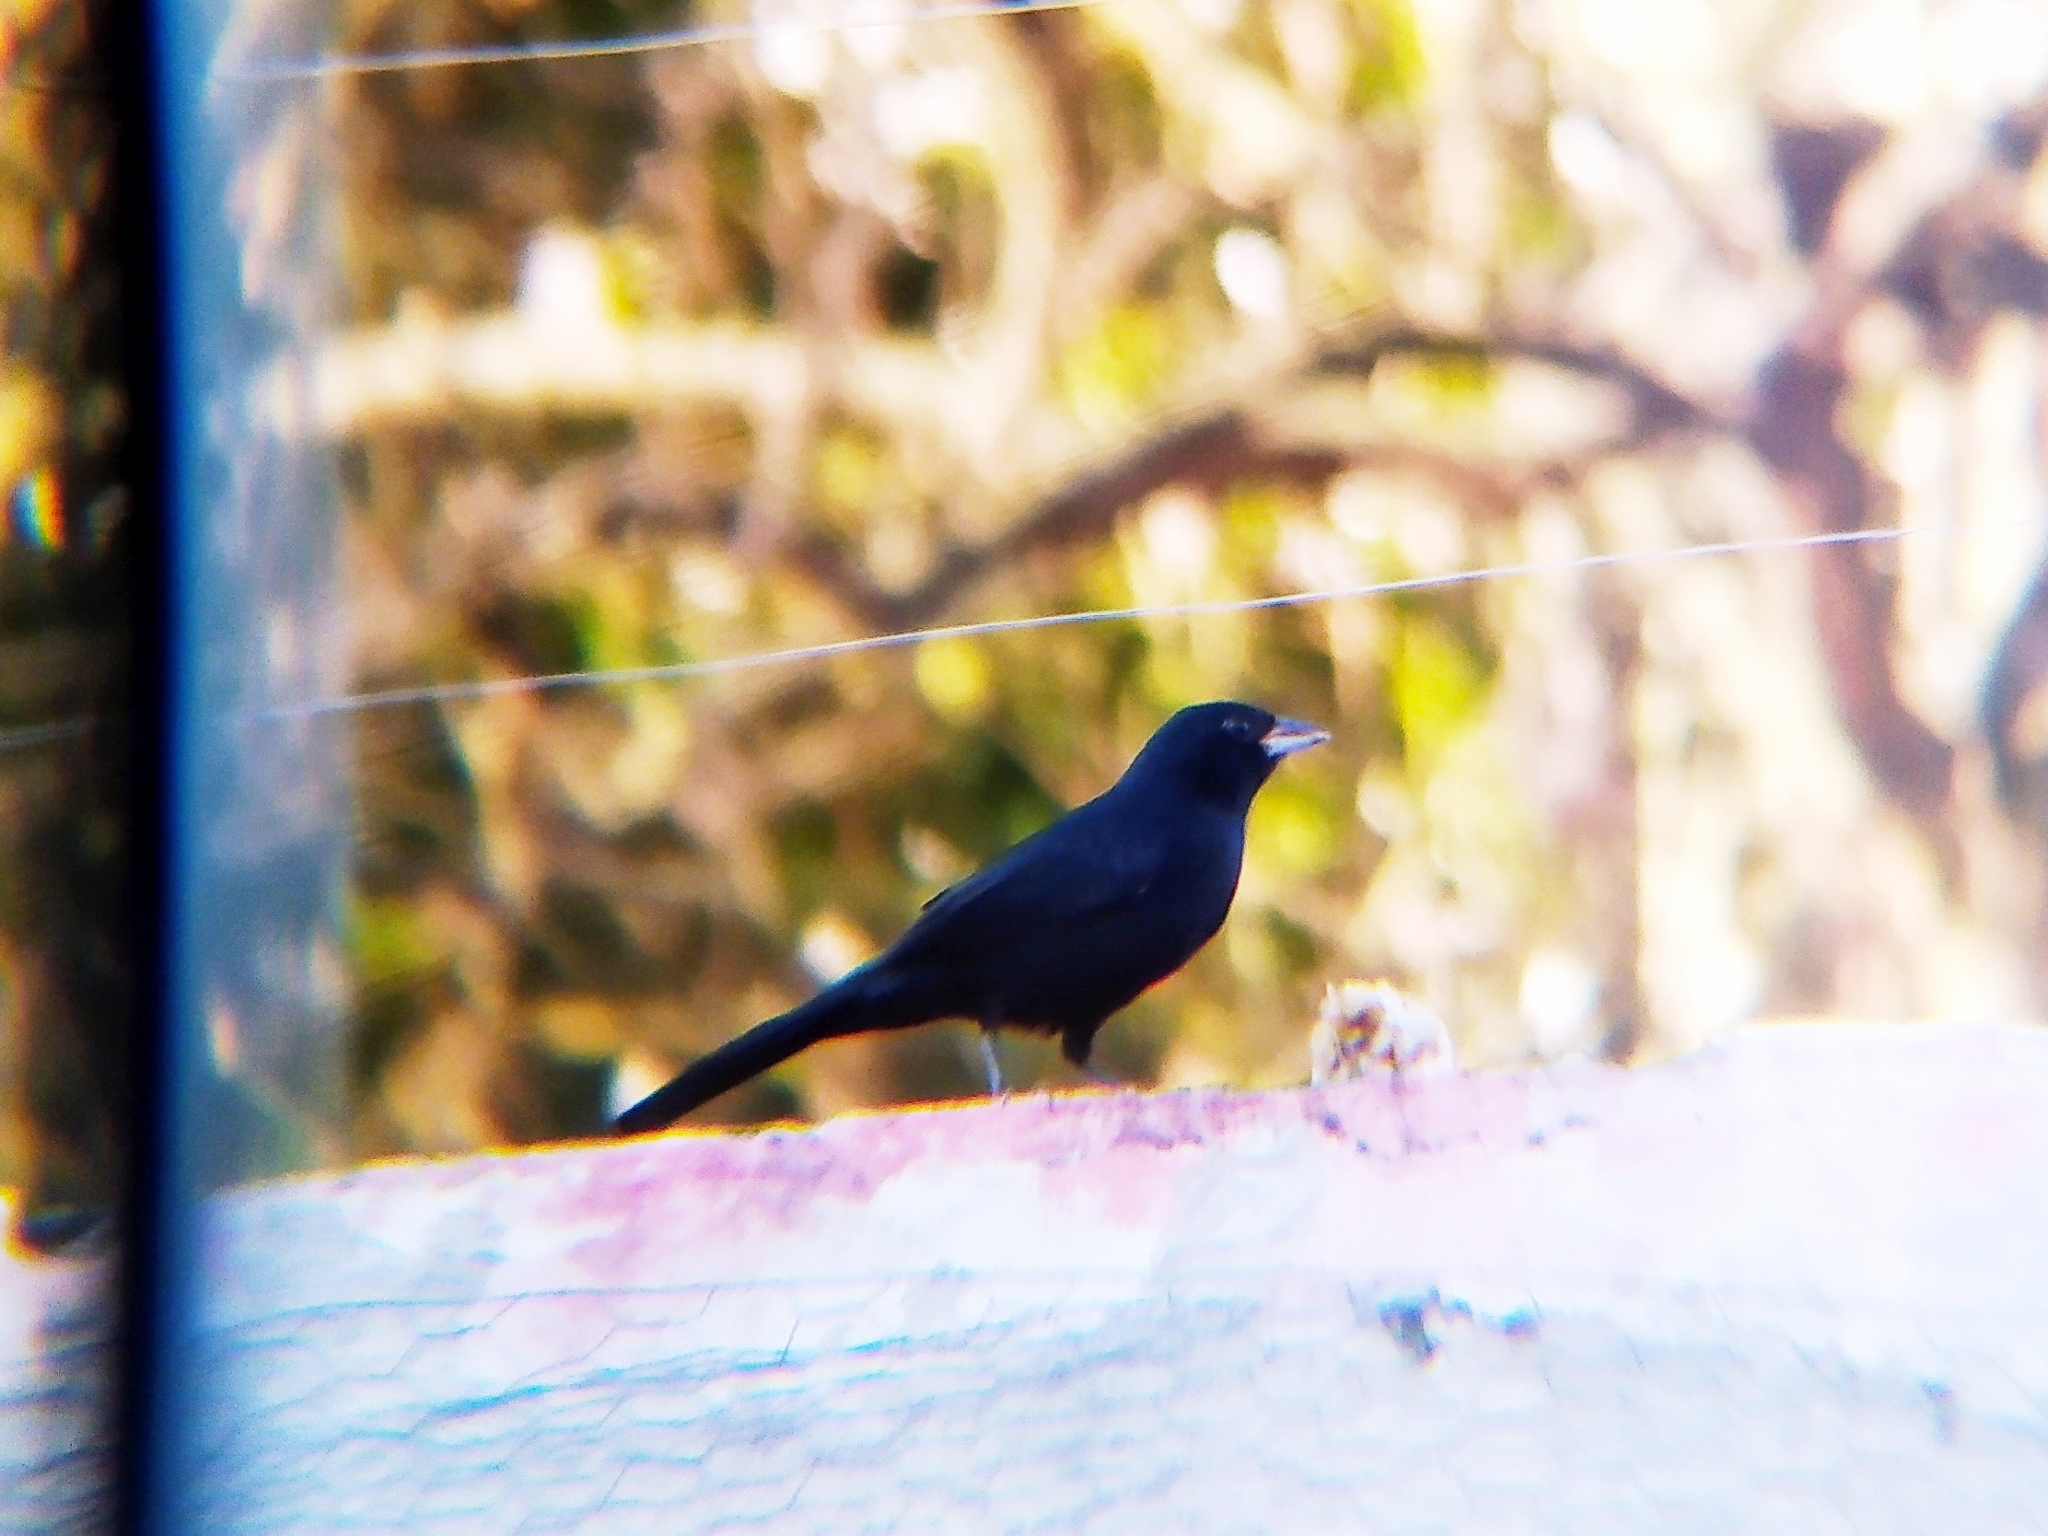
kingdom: Animalia
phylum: Chordata
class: Aves
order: Passeriformes
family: Thraupidae
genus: Tachyphonus
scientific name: Tachyphonus coronatus
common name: Ruby-crowned tanager
